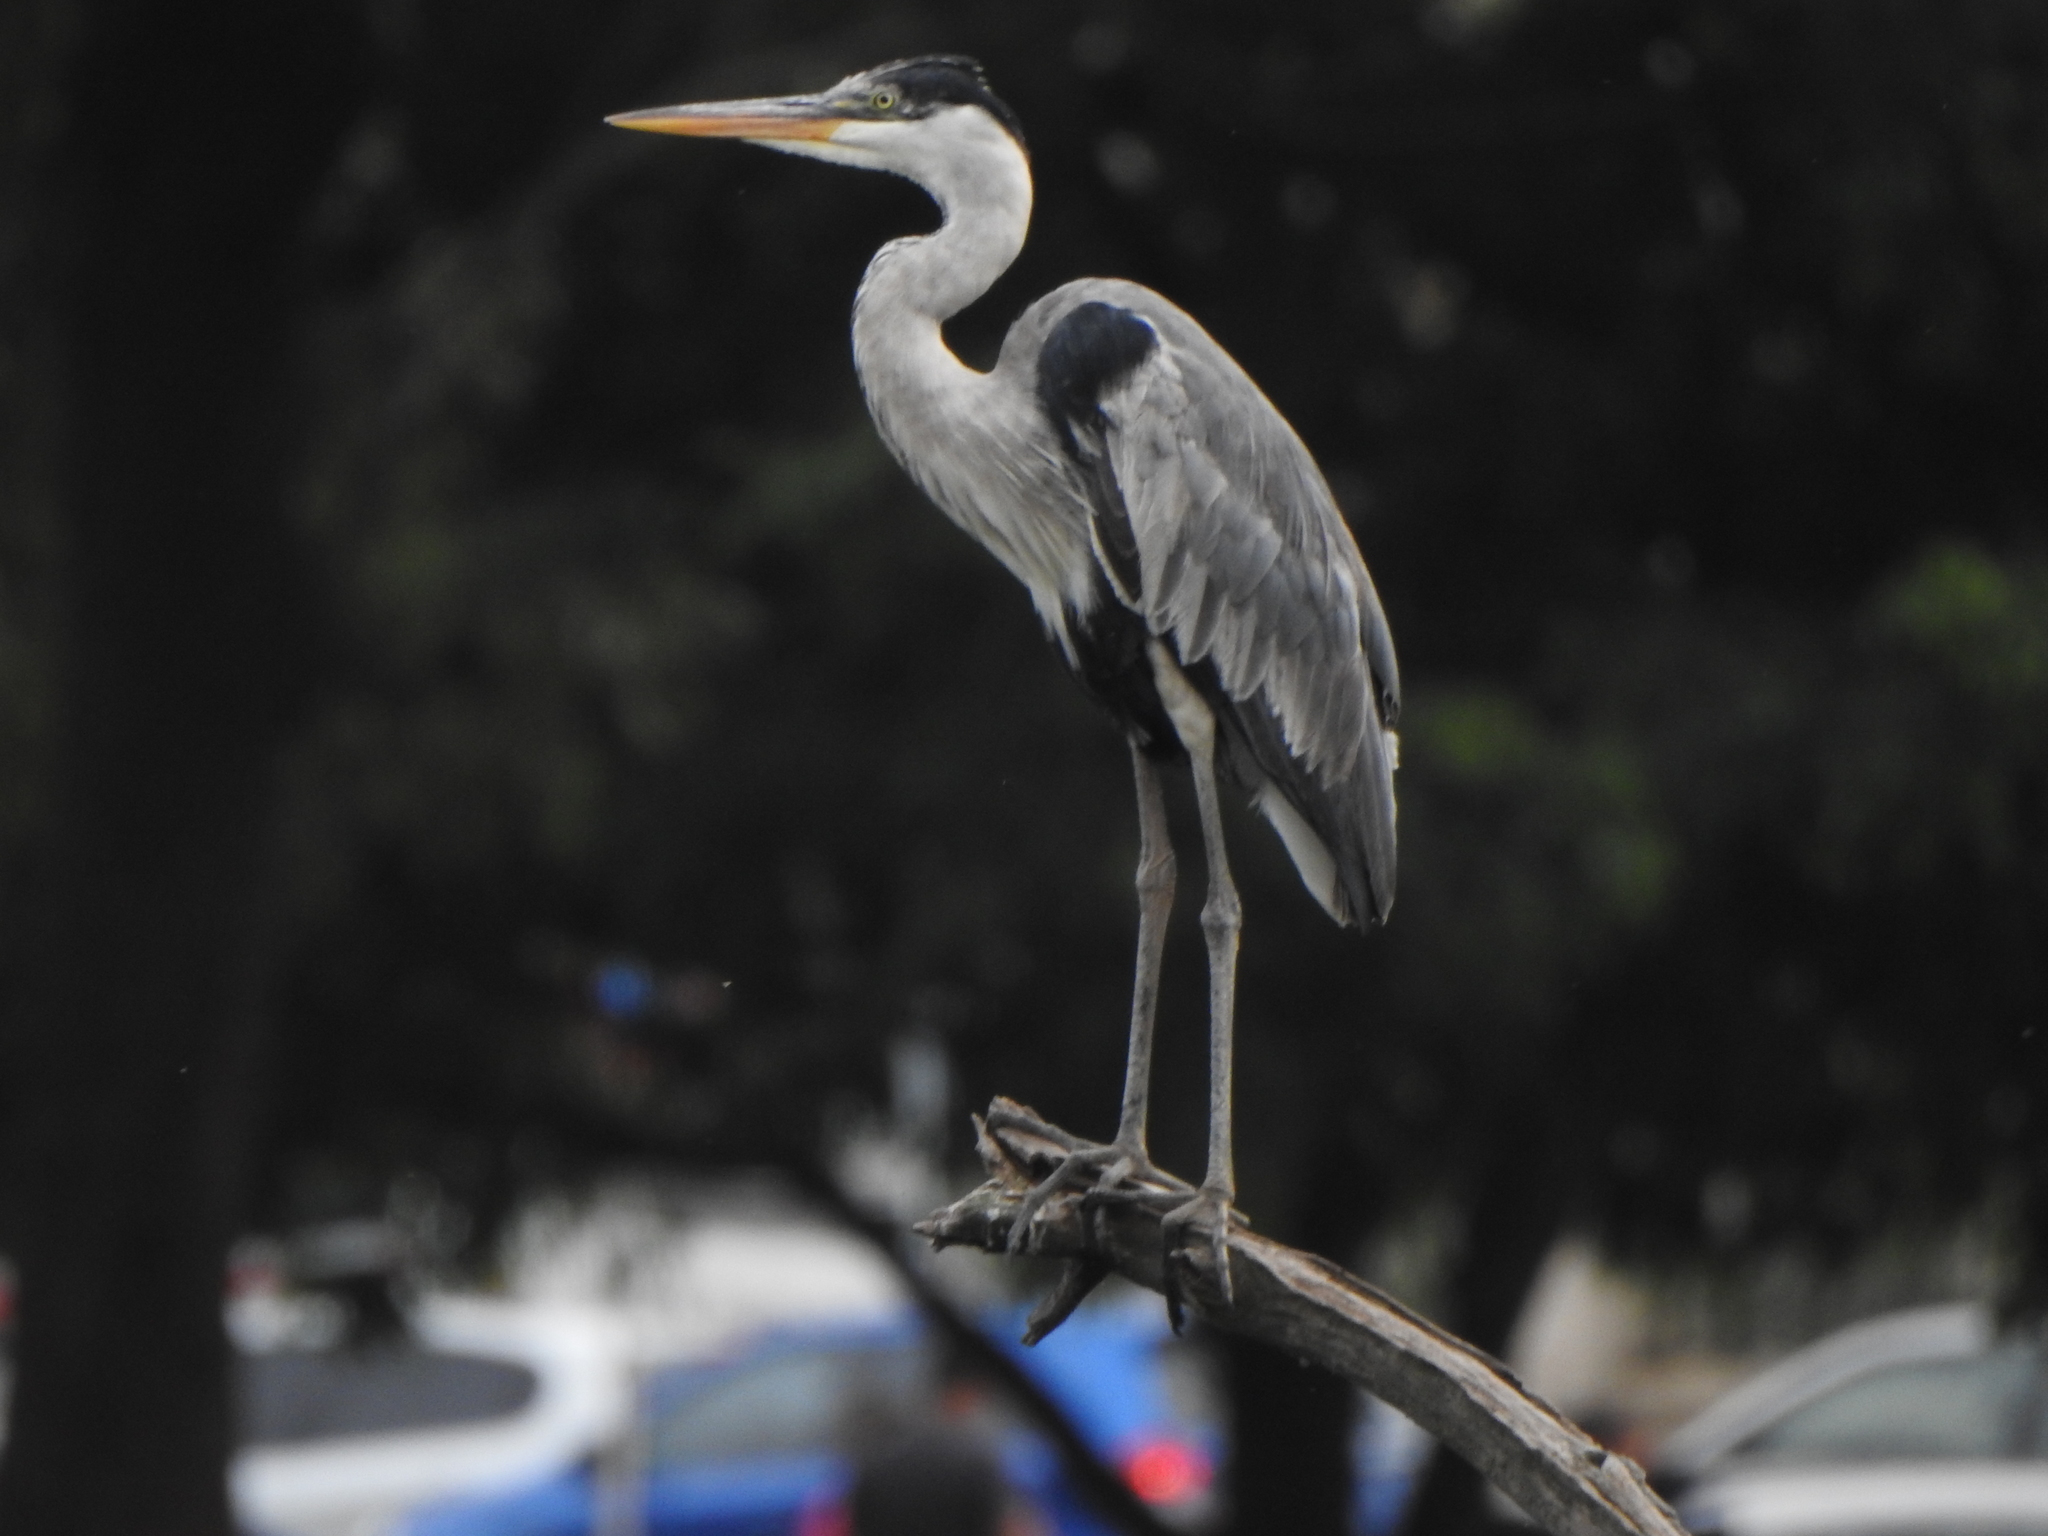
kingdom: Animalia
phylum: Chordata
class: Aves
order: Pelecaniformes
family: Ardeidae
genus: Ardea
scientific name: Ardea cocoi
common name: Cocoi heron
